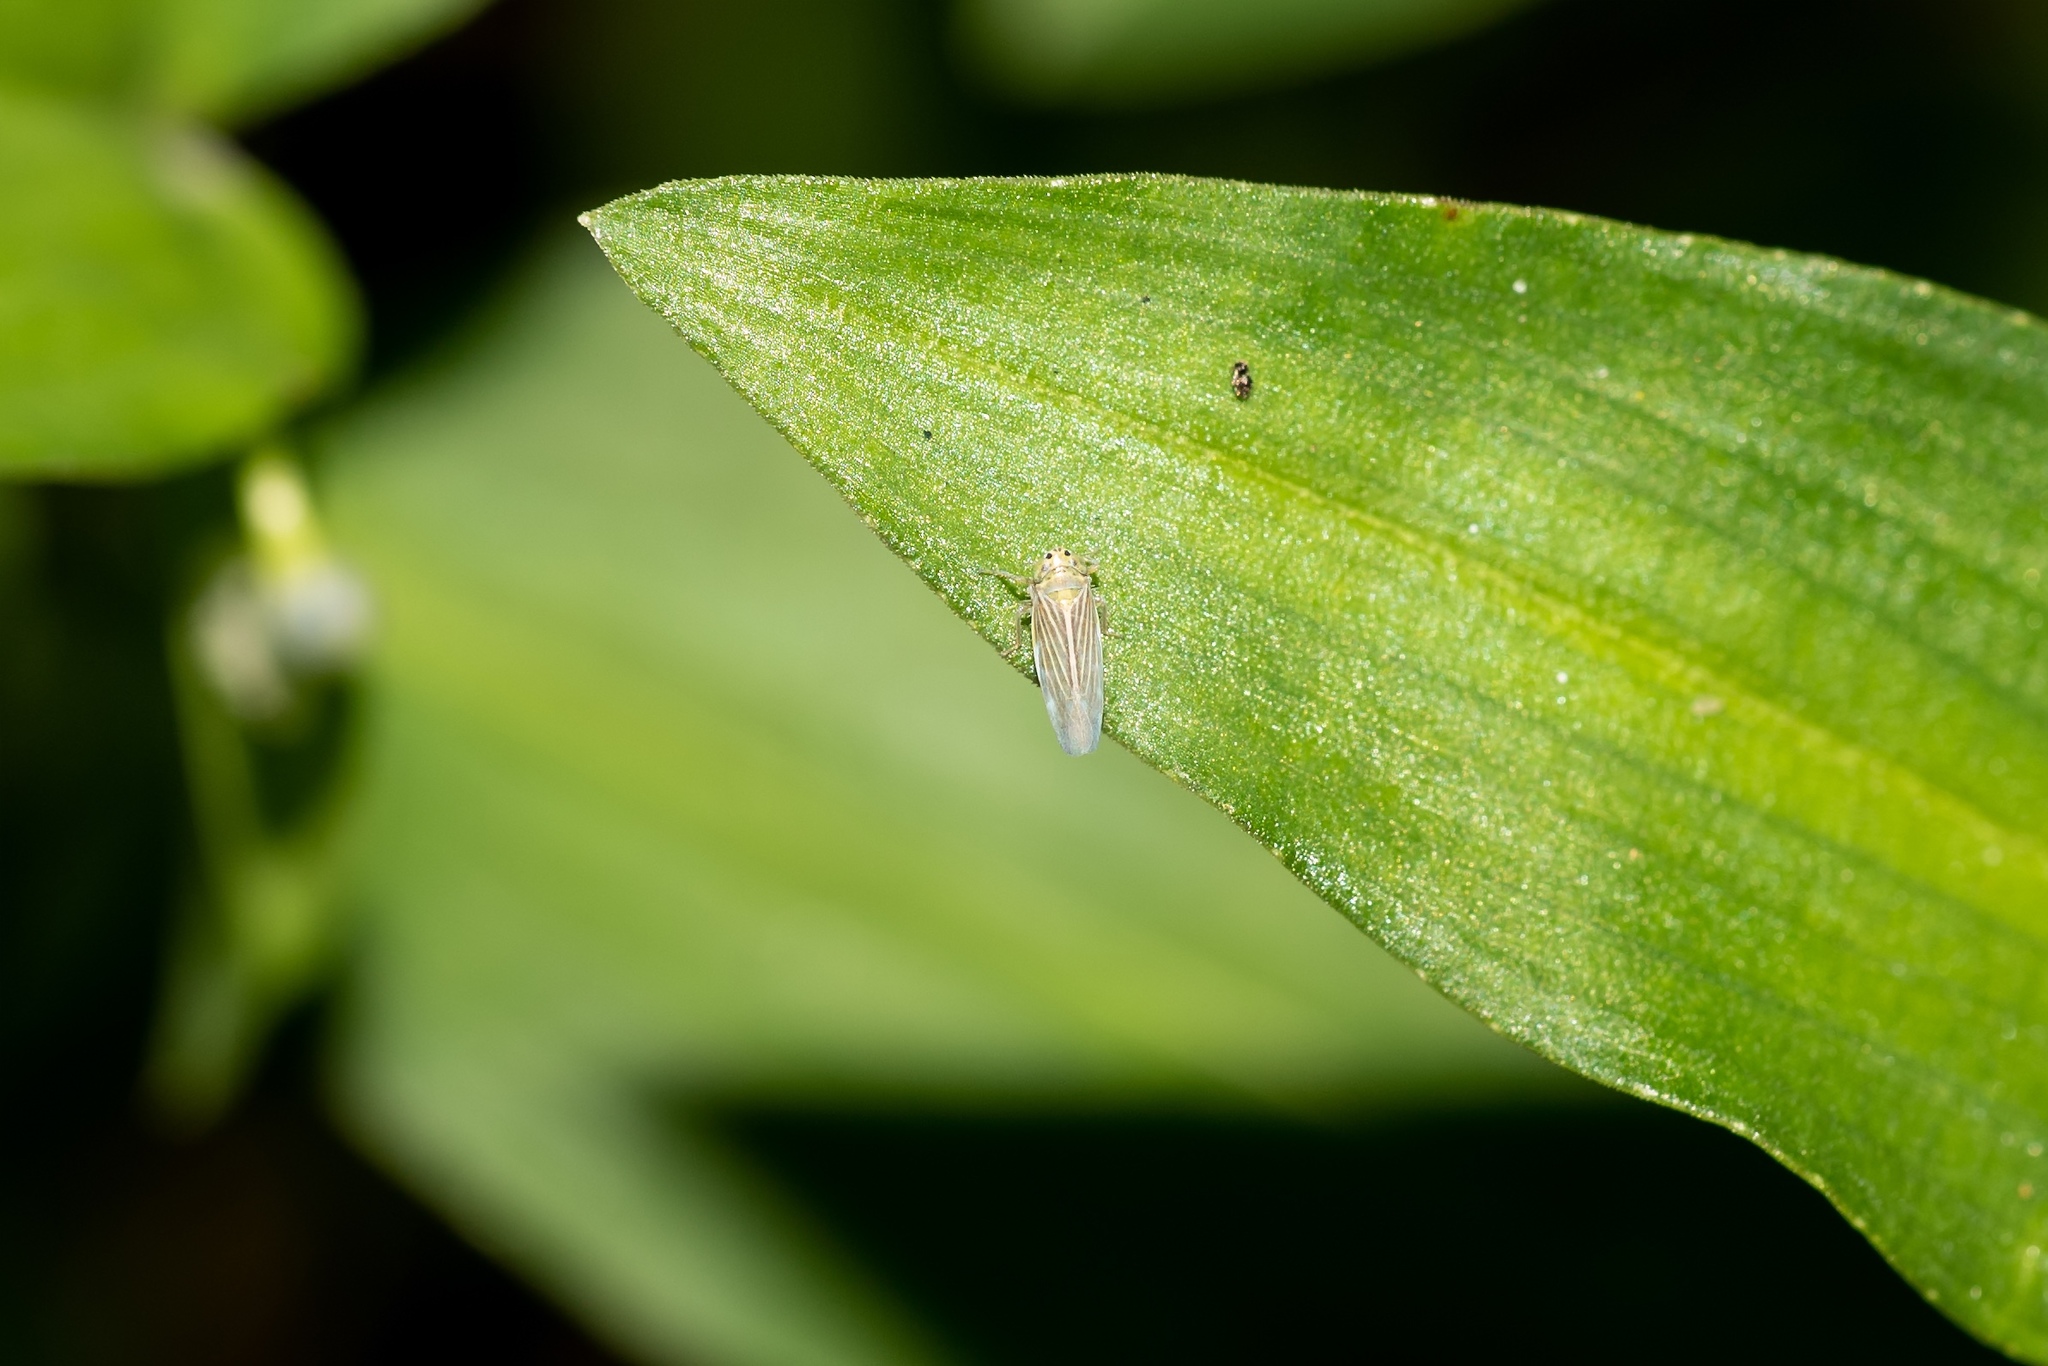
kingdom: Animalia
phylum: Arthropoda
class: Insecta
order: Hemiptera
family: Cicadellidae
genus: Graminella
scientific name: Graminella cognita
